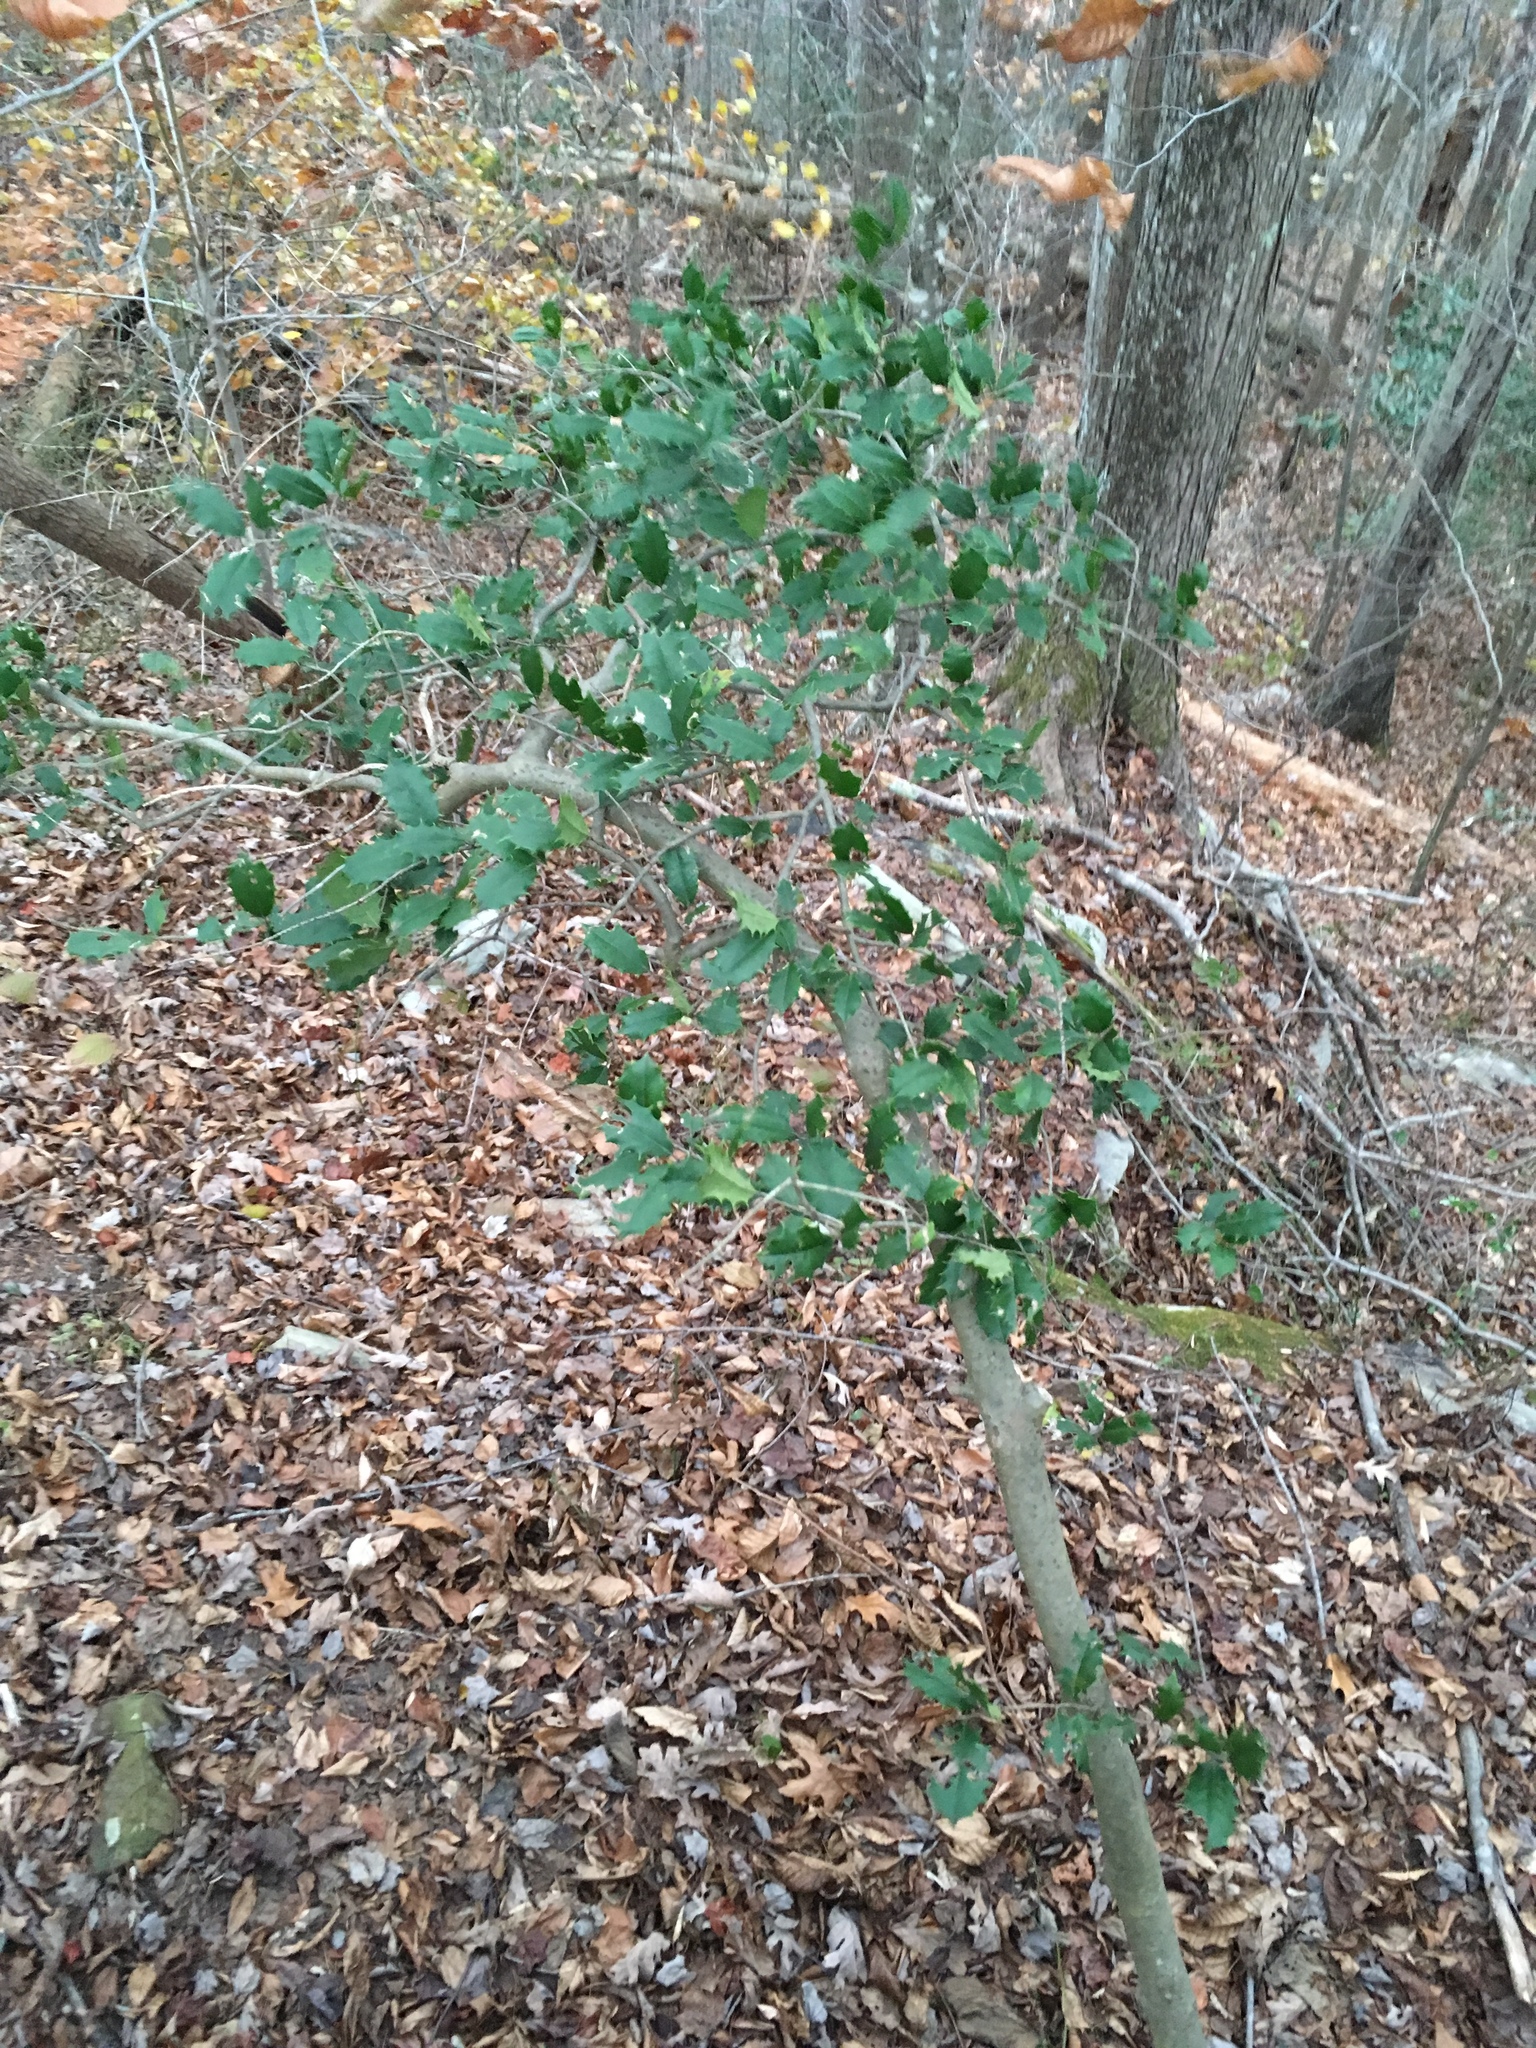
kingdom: Plantae
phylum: Tracheophyta
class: Magnoliopsida
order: Aquifoliales
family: Aquifoliaceae
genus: Ilex
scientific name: Ilex opaca
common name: American holly
